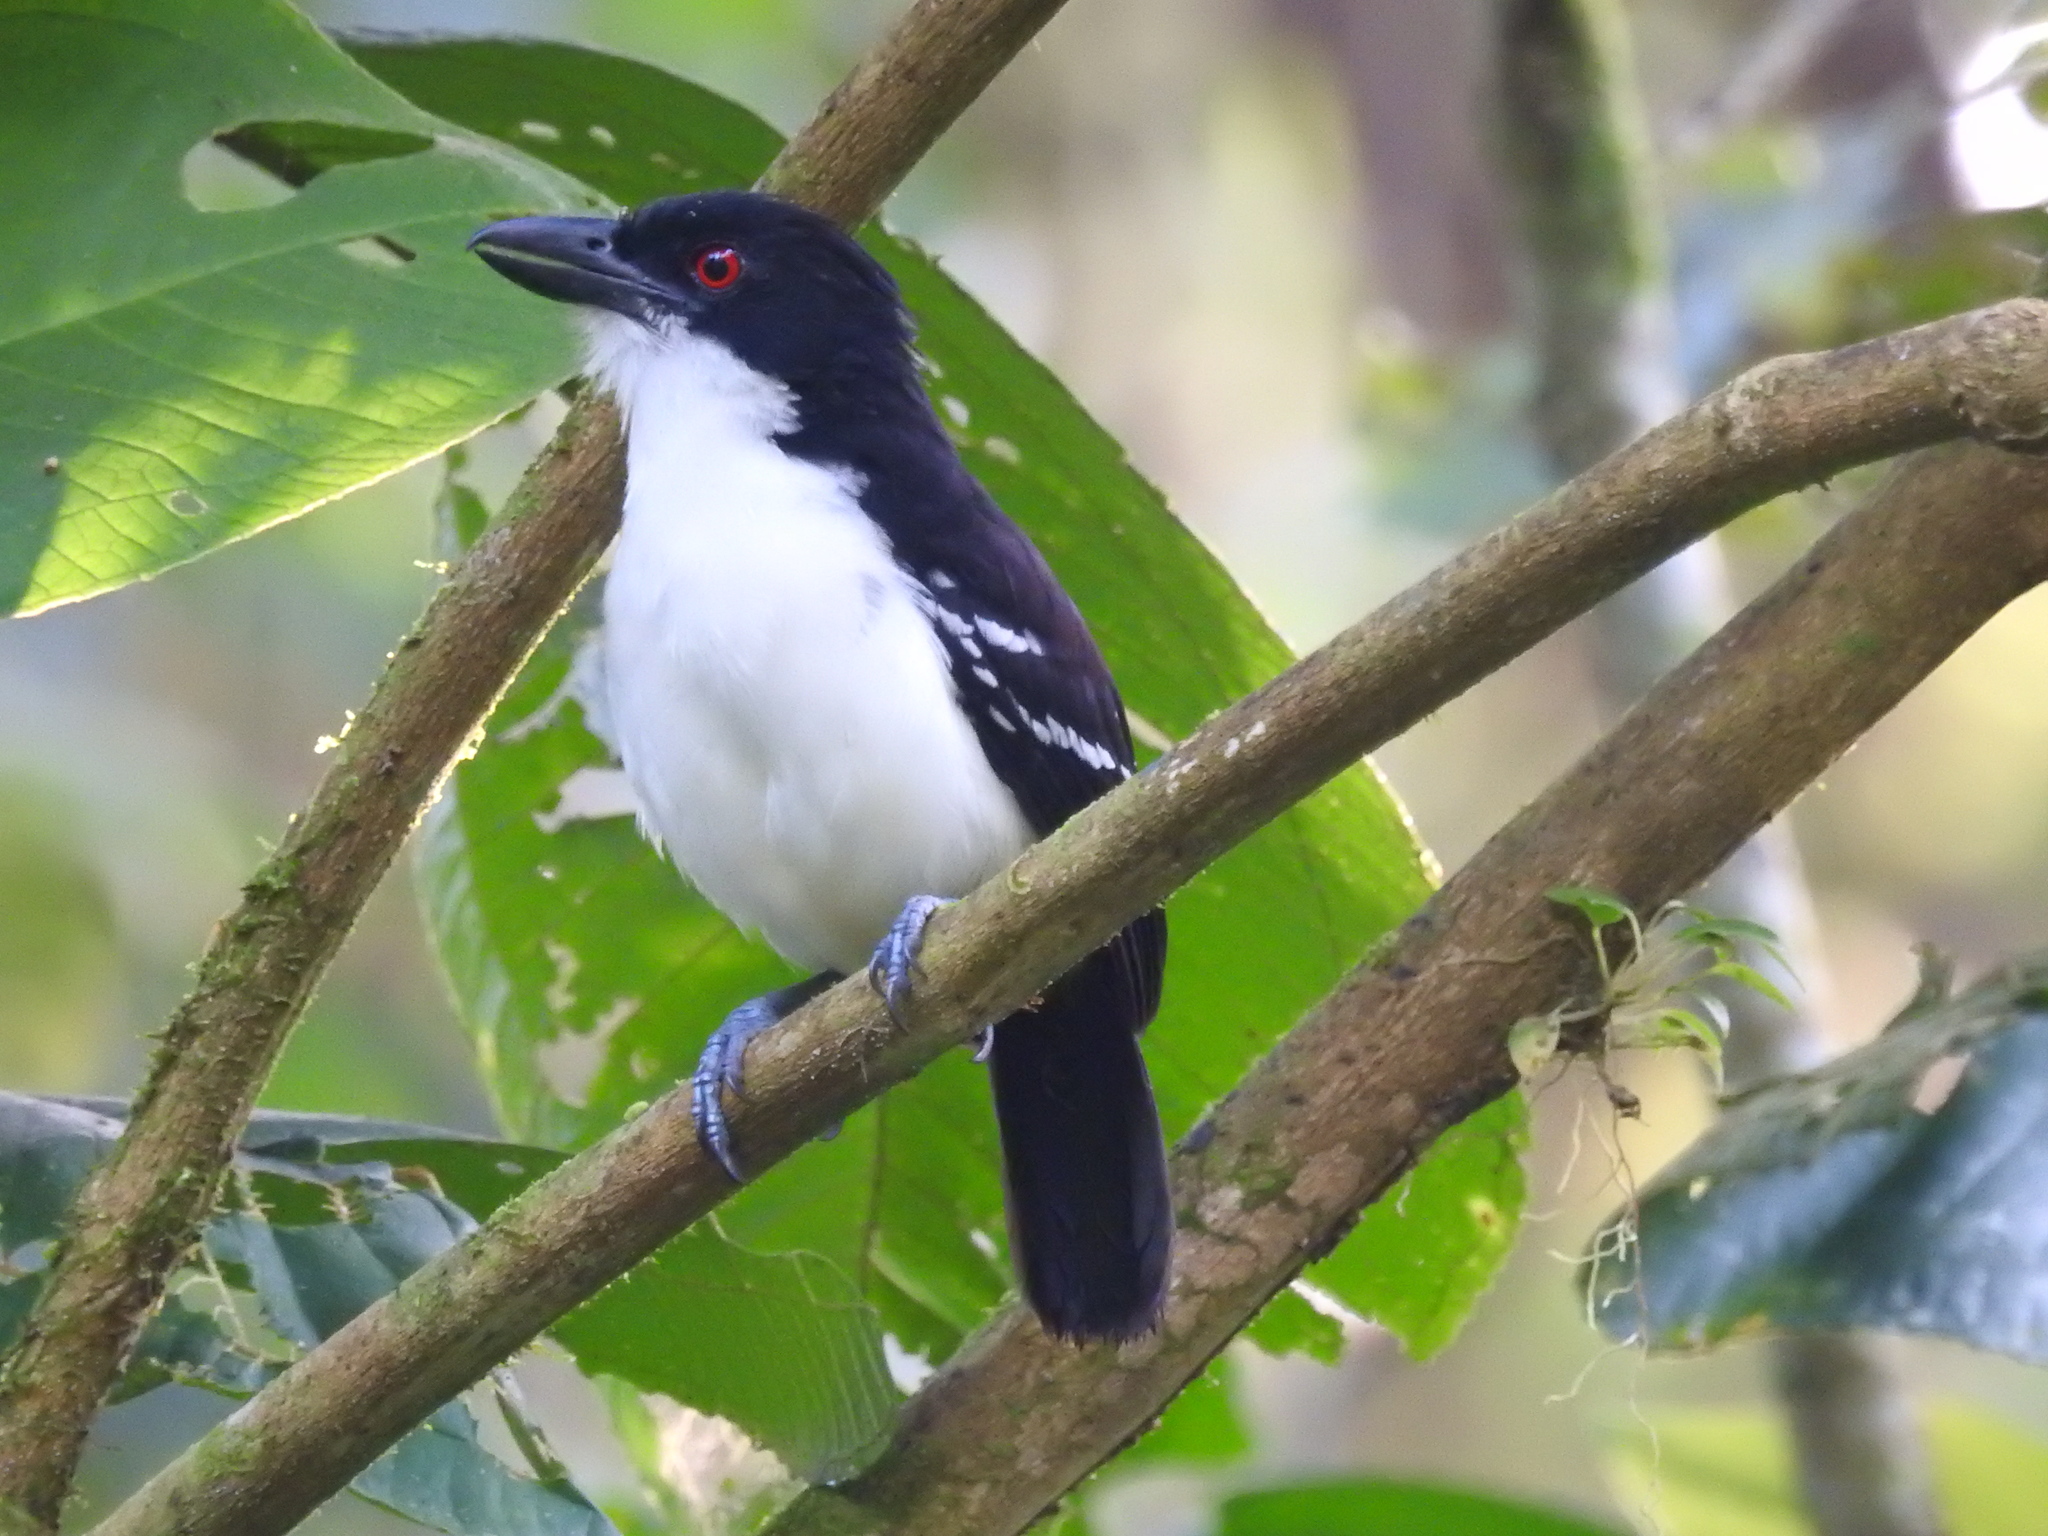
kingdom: Animalia
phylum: Chordata
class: Aves
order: Passeriformes
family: Thamnophilidae
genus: Taraba
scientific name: Taraba major
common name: Great antshrike
